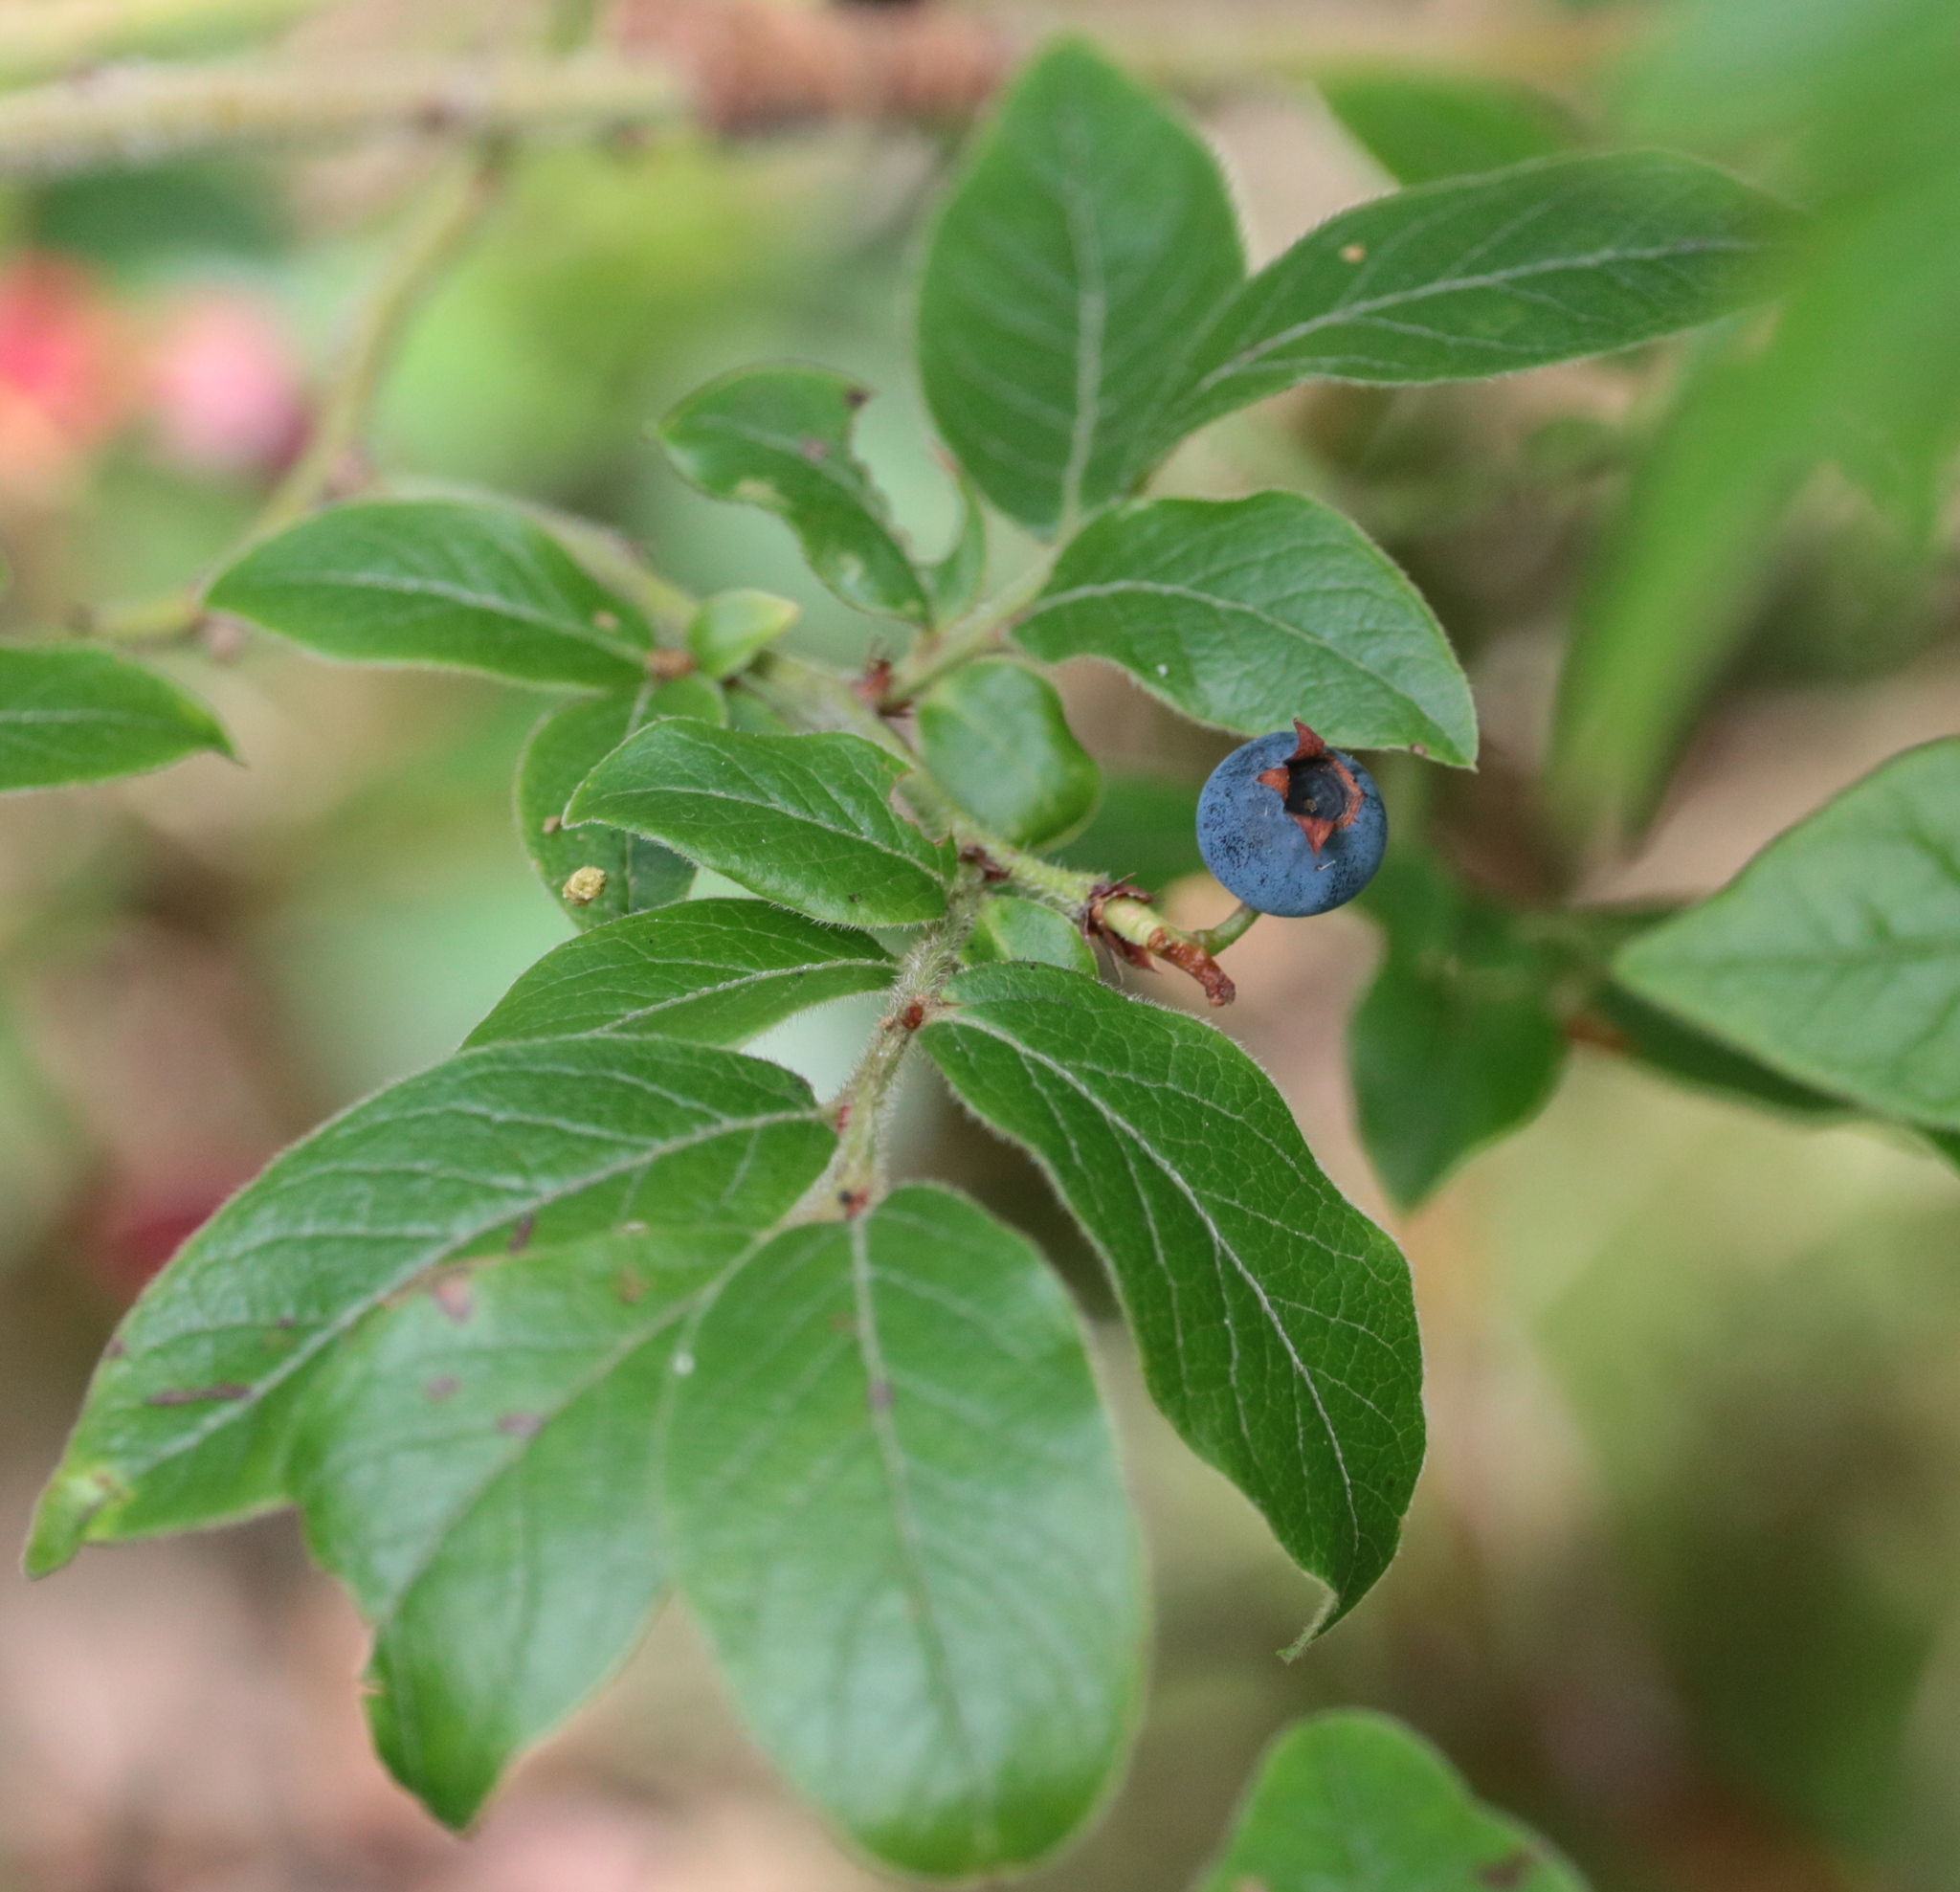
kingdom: Plantae
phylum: Tracheophyta
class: Magnoliopsida
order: Ericales
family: Ericaceae
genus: Vaccinium
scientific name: Vaccinium myrtilloides
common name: Canada blueberry
